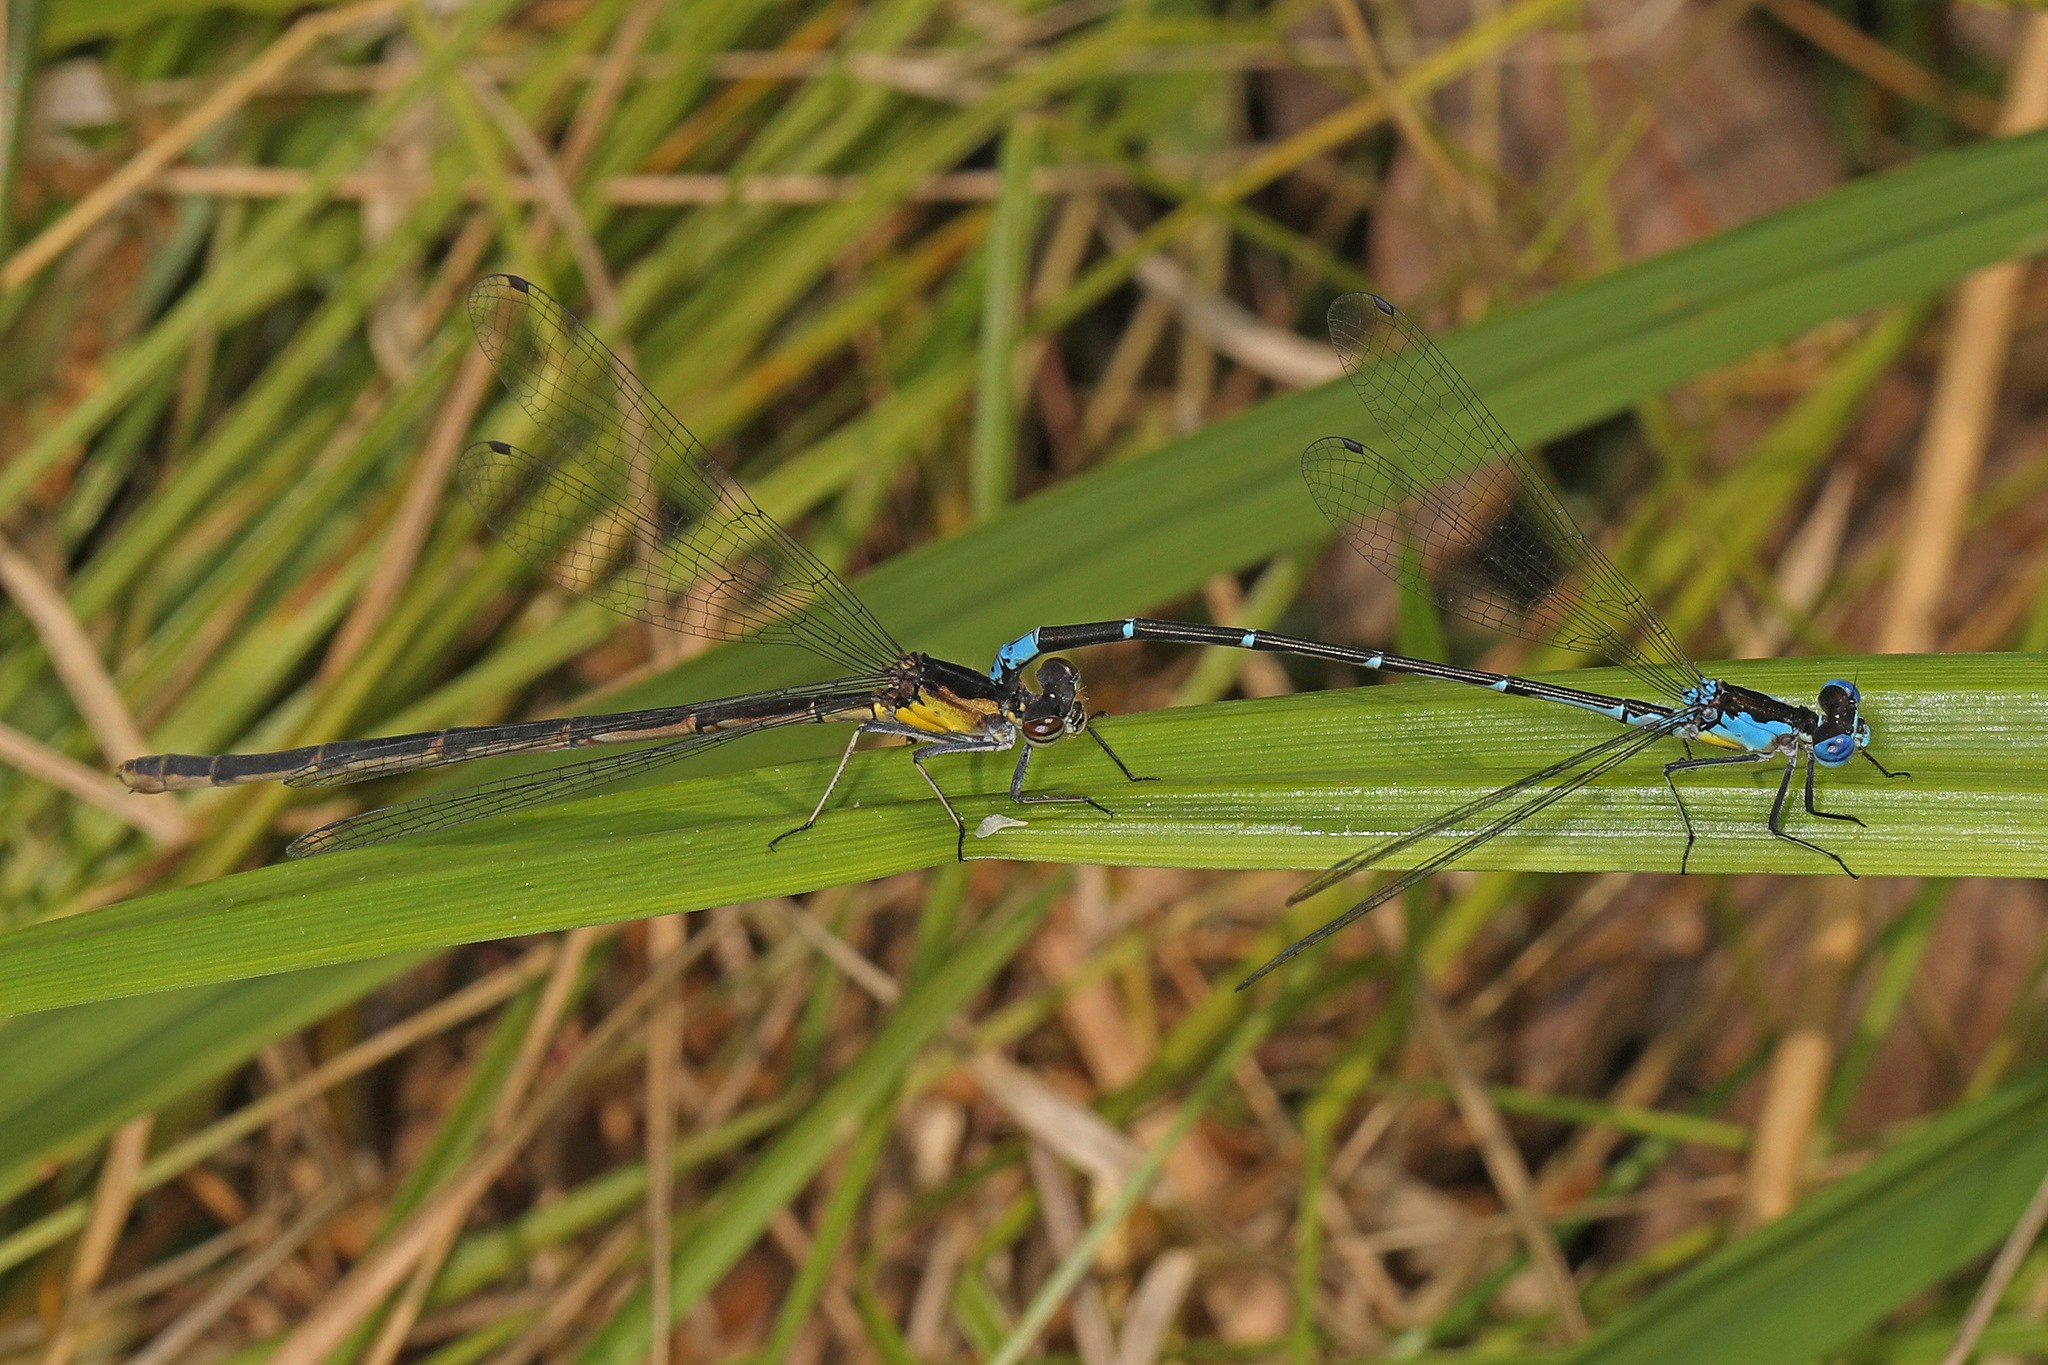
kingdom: Animalia
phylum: Arthropoda
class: Insecta
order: Odonata
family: Coenagrionidae
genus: Chromagrion
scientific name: Chromagrion conditum
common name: Aurora damsel
